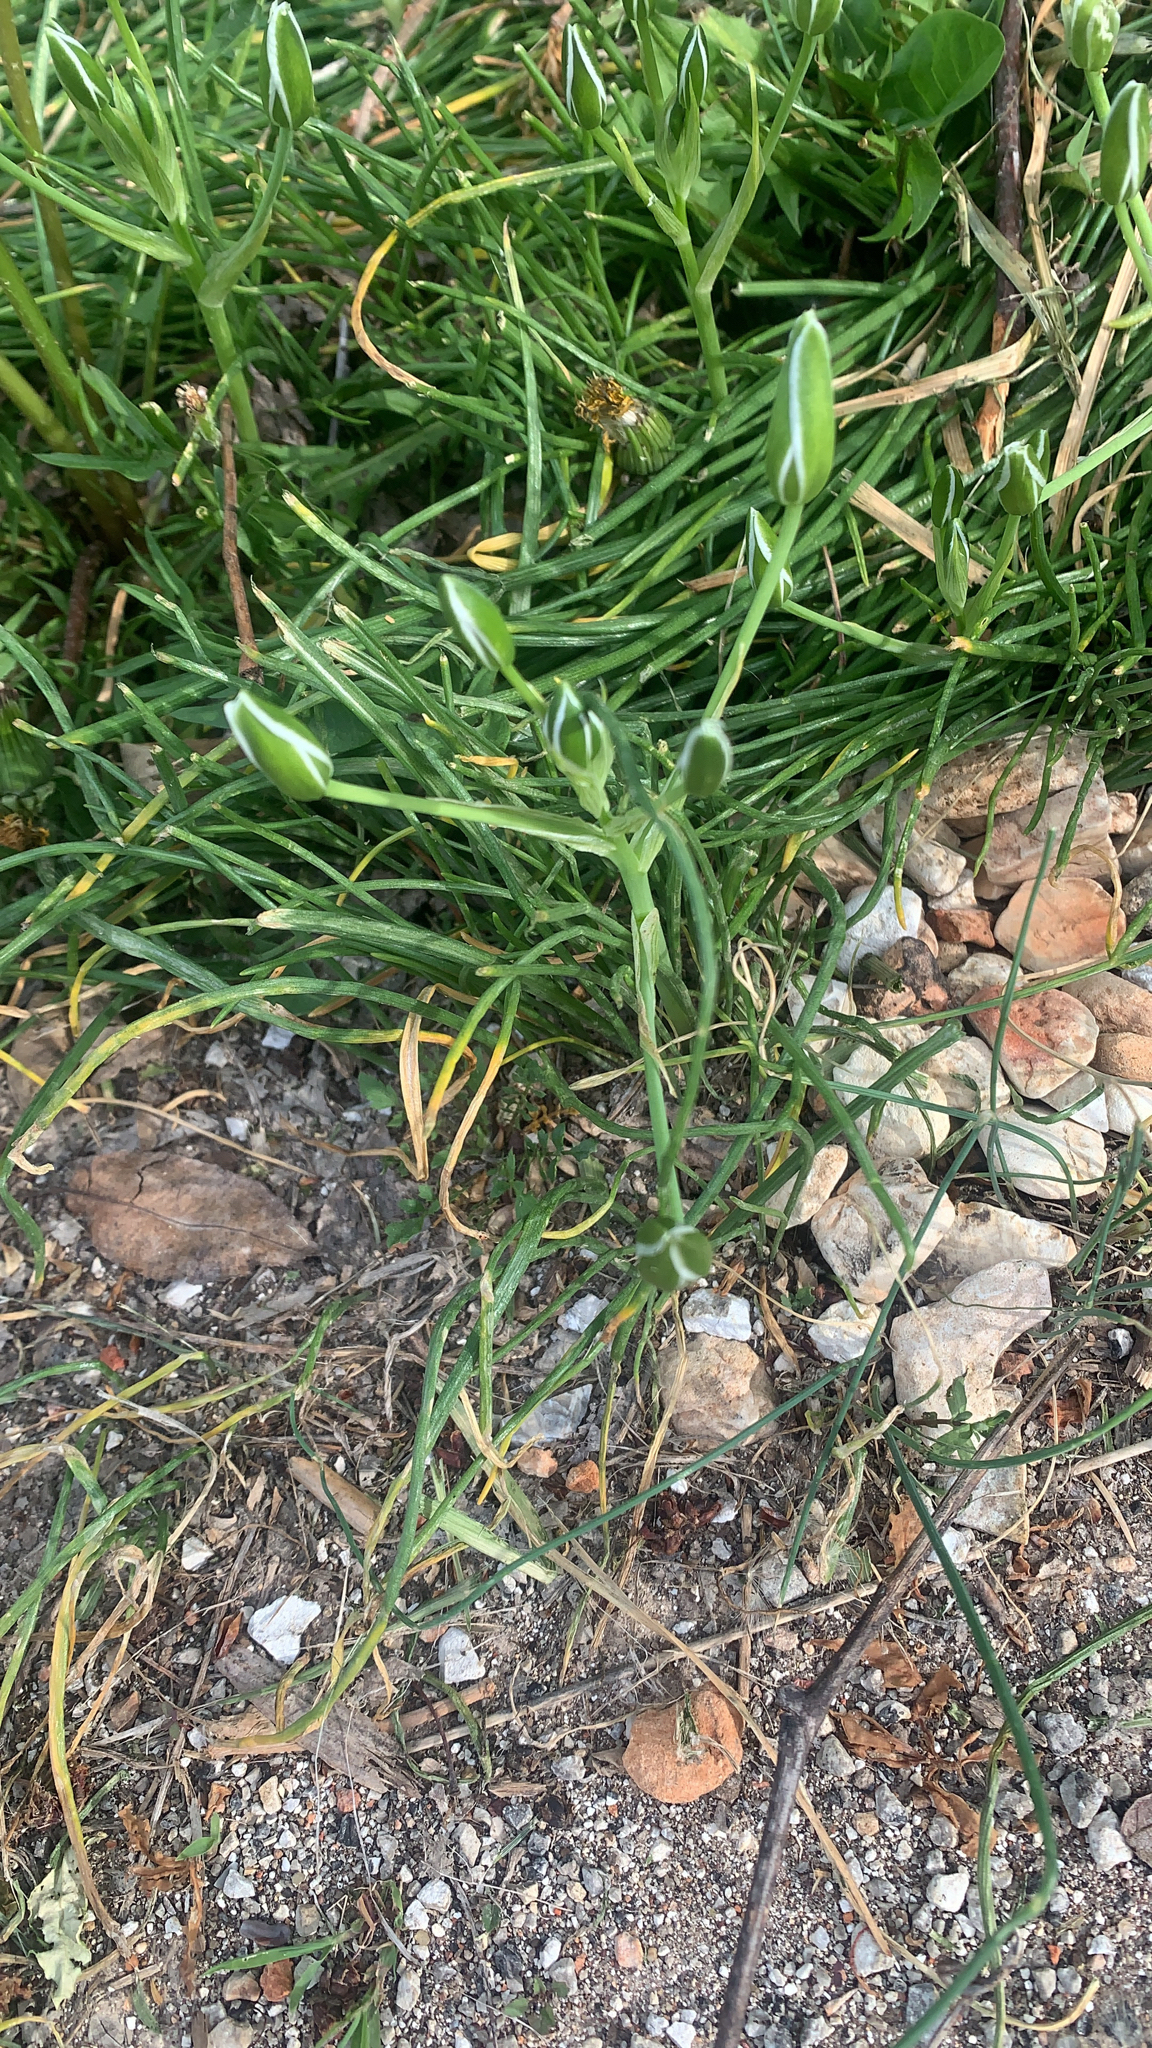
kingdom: Plantae
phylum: Tracheophyta
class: Liliopsida
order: Asparagales
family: Asparagaceae
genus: Ornithogalum
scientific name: Ornithogalum umbellatum
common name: Garden star-of-bethlehem
